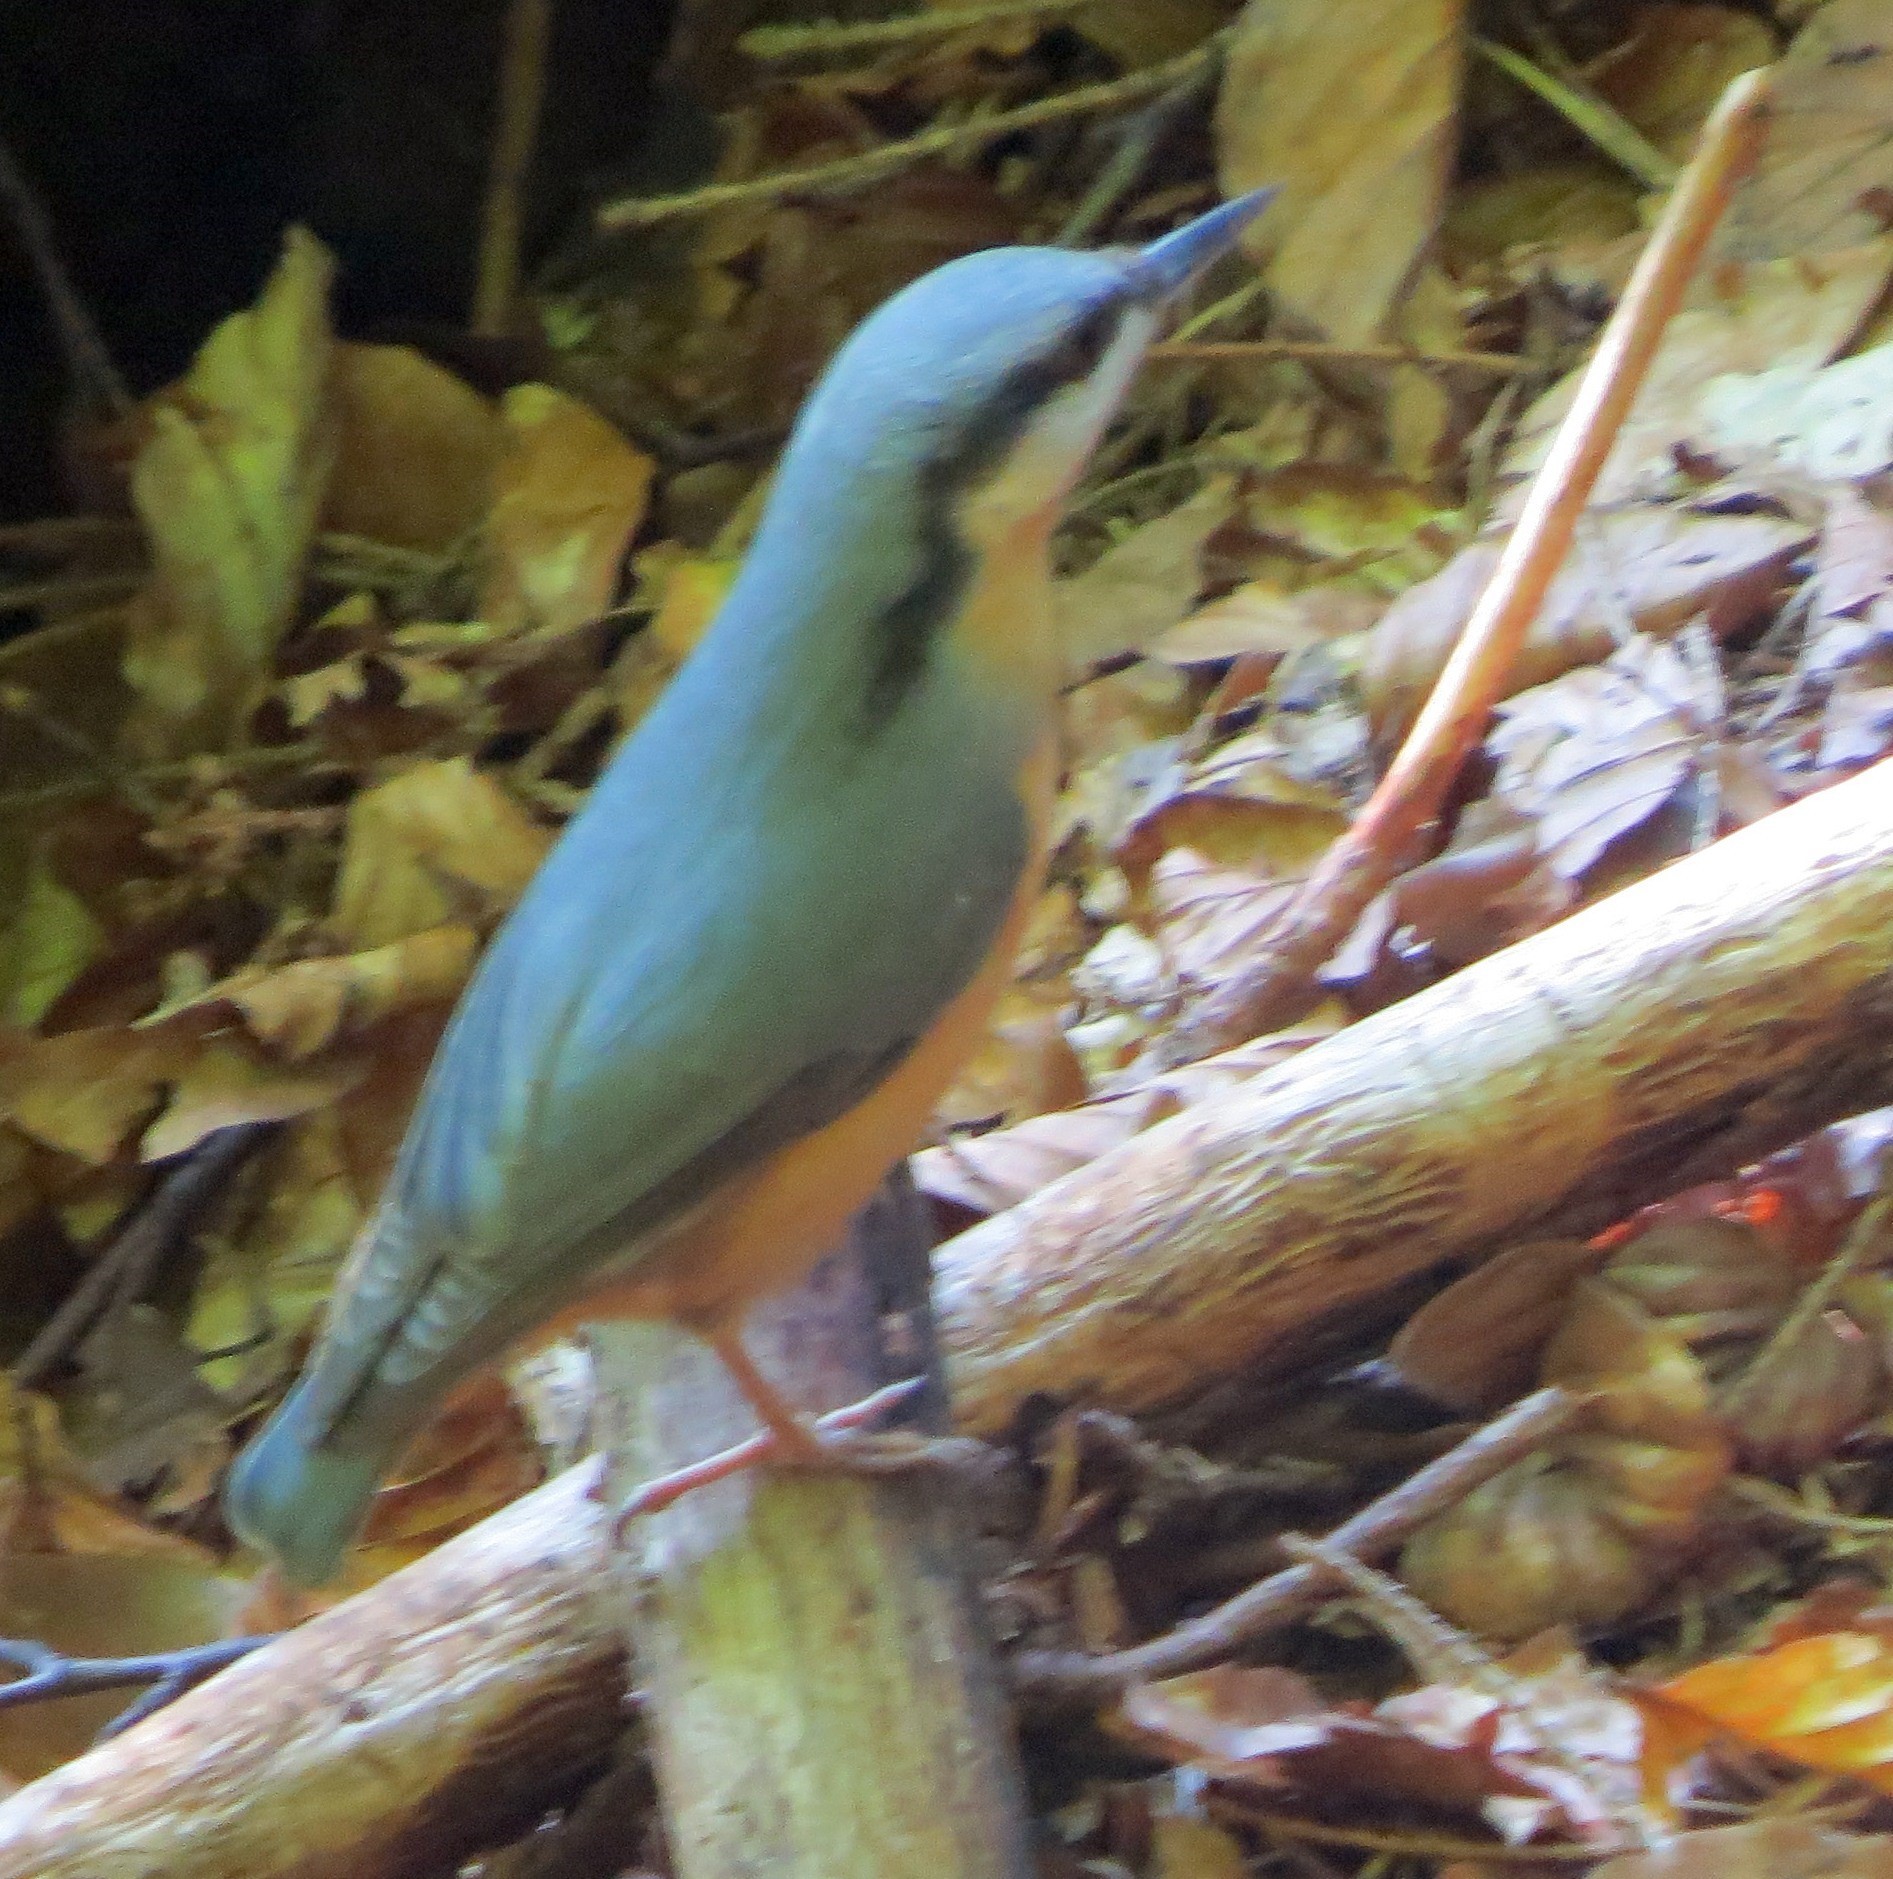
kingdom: Animalia
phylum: Chordata
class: Aves
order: Passeriformes
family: Sittidae
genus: Sitta
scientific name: Sitta europaea
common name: Eurasian nuthatch
